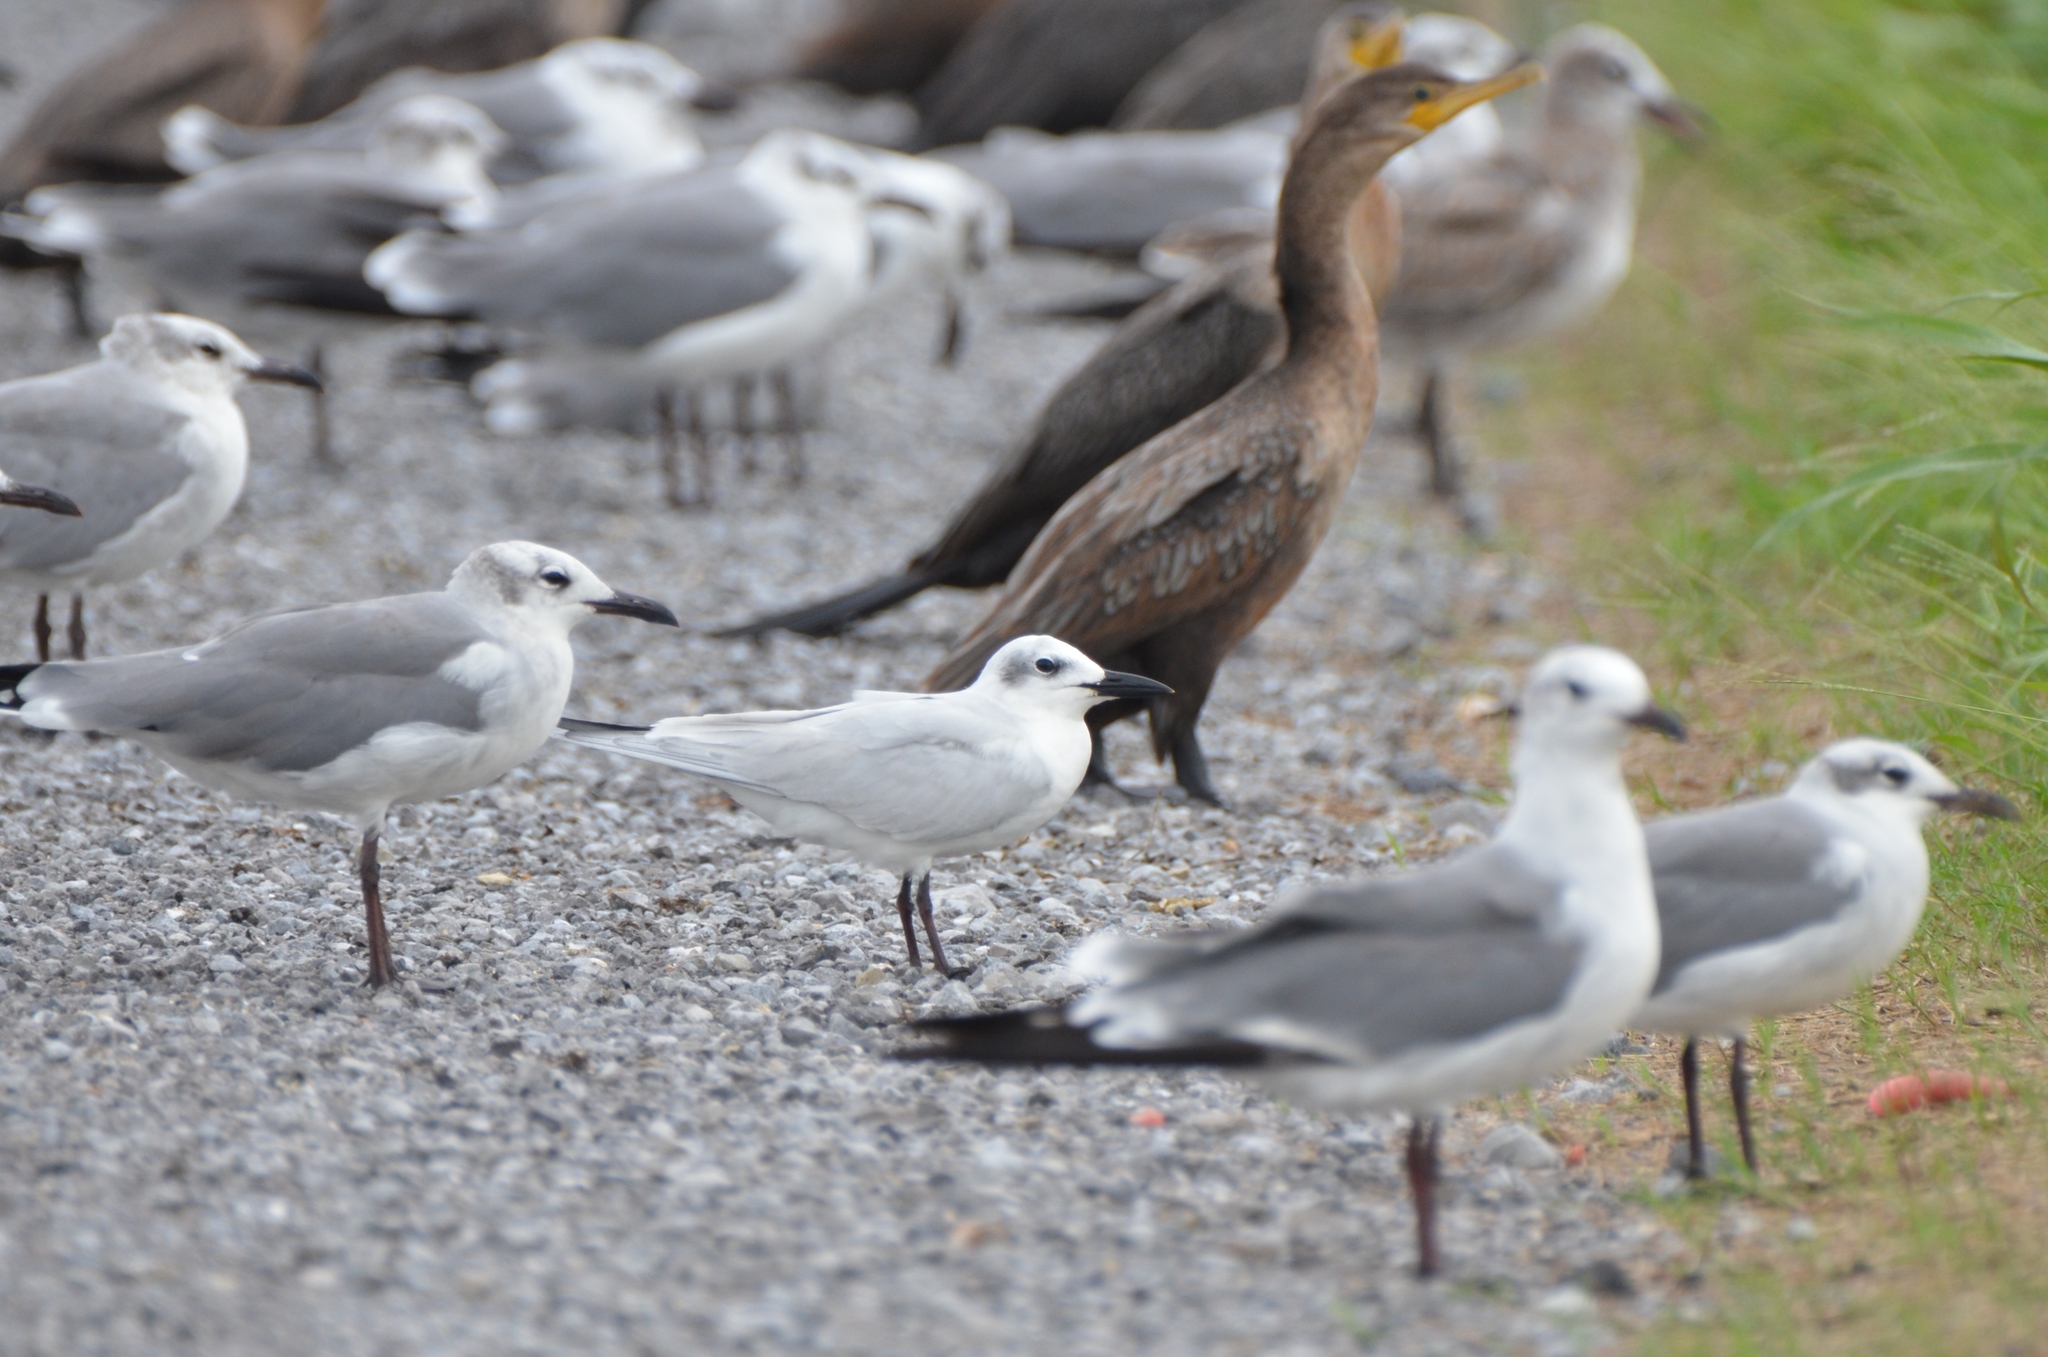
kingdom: Animalia
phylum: Chordata
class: Aves
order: Charadriiformes
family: Laridae
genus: Gelochelidon
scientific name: Gelochelidon nilotica
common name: Gull-billed tern
